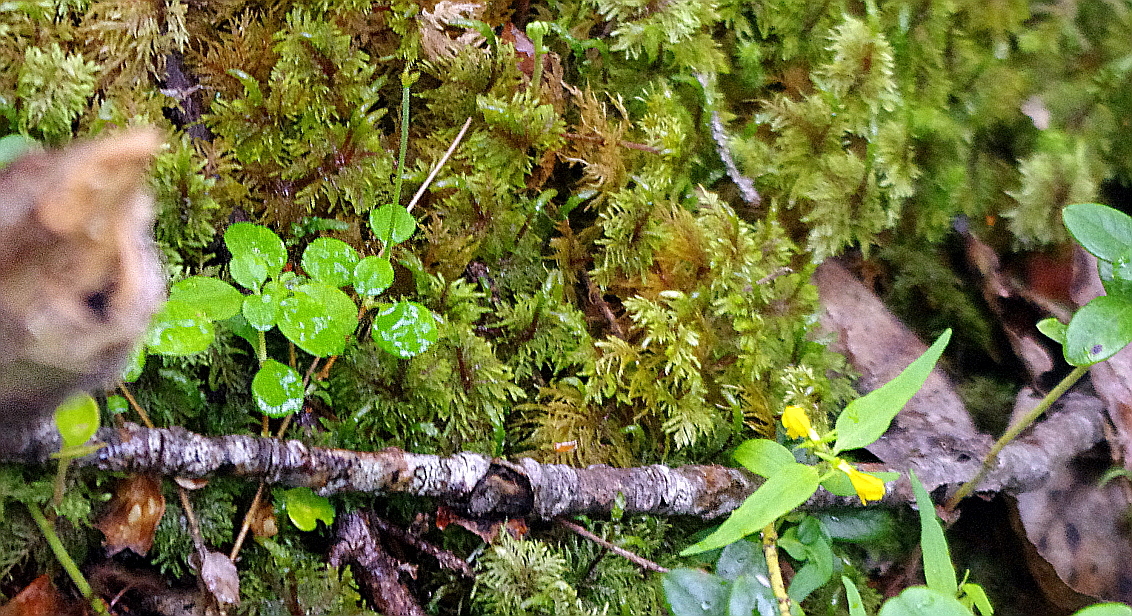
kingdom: Plantae
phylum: Bryophyta
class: Bryopsida
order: Hypnales
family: Hylocomiaceae
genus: Hylocomium
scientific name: Hylocomium splendens
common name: Stairstep moss
